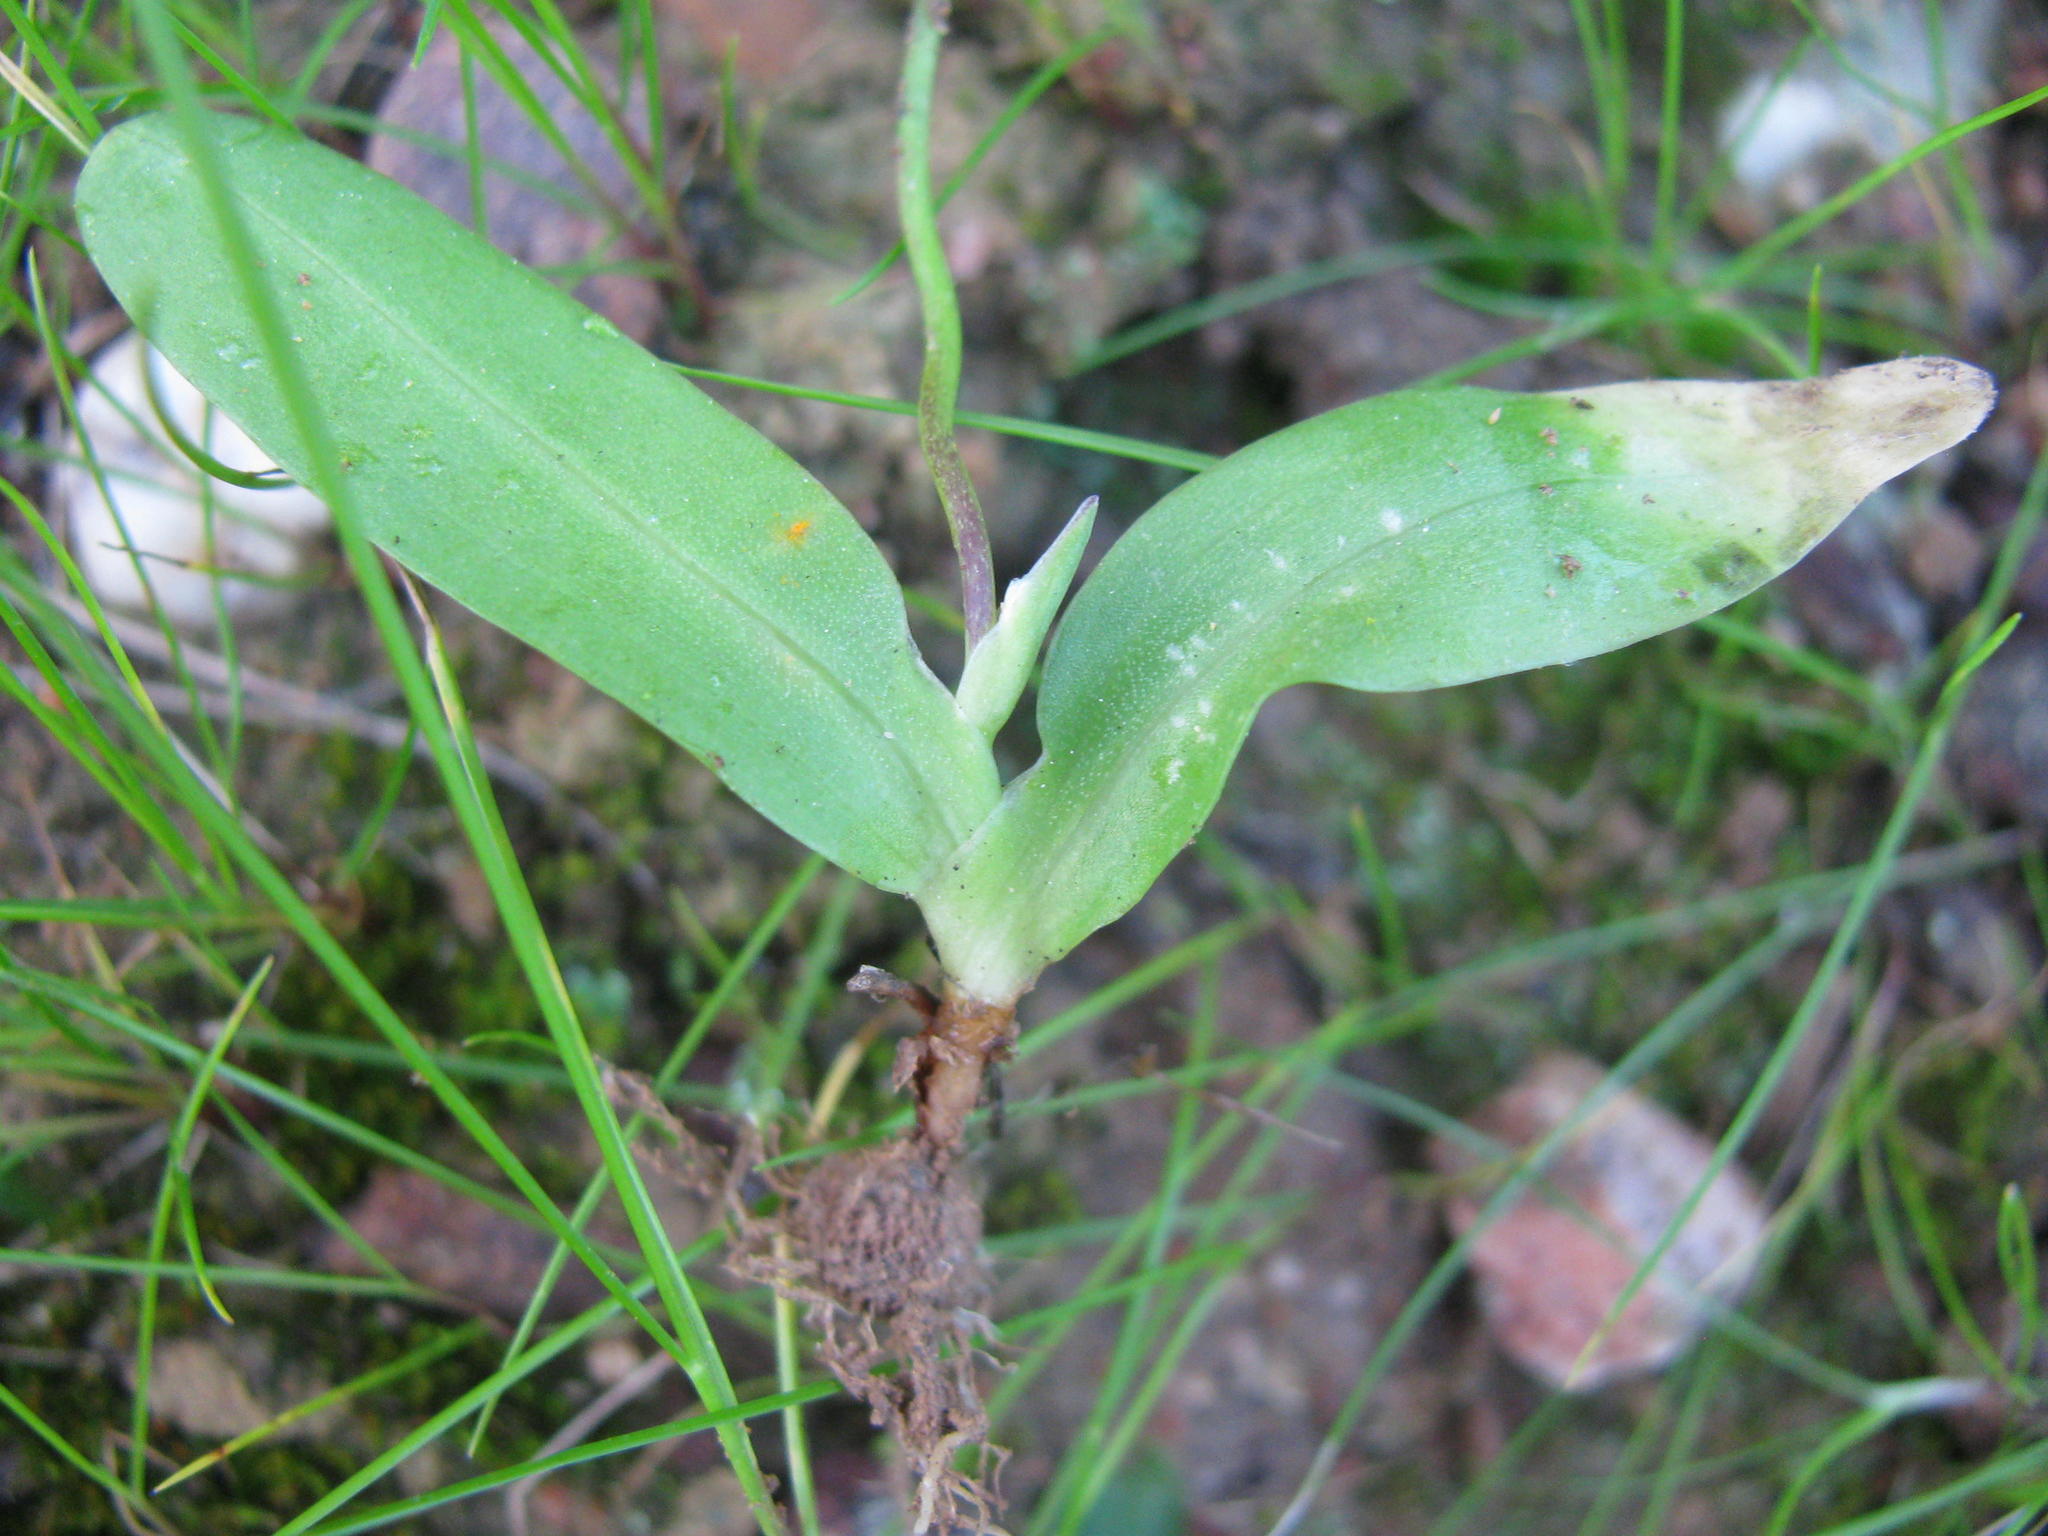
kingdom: Plantae
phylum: Tracheophyta
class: Liliopsida
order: Asparagales
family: Iridaceae
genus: Xenoscapa
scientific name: Xenoscapa fistulosa
